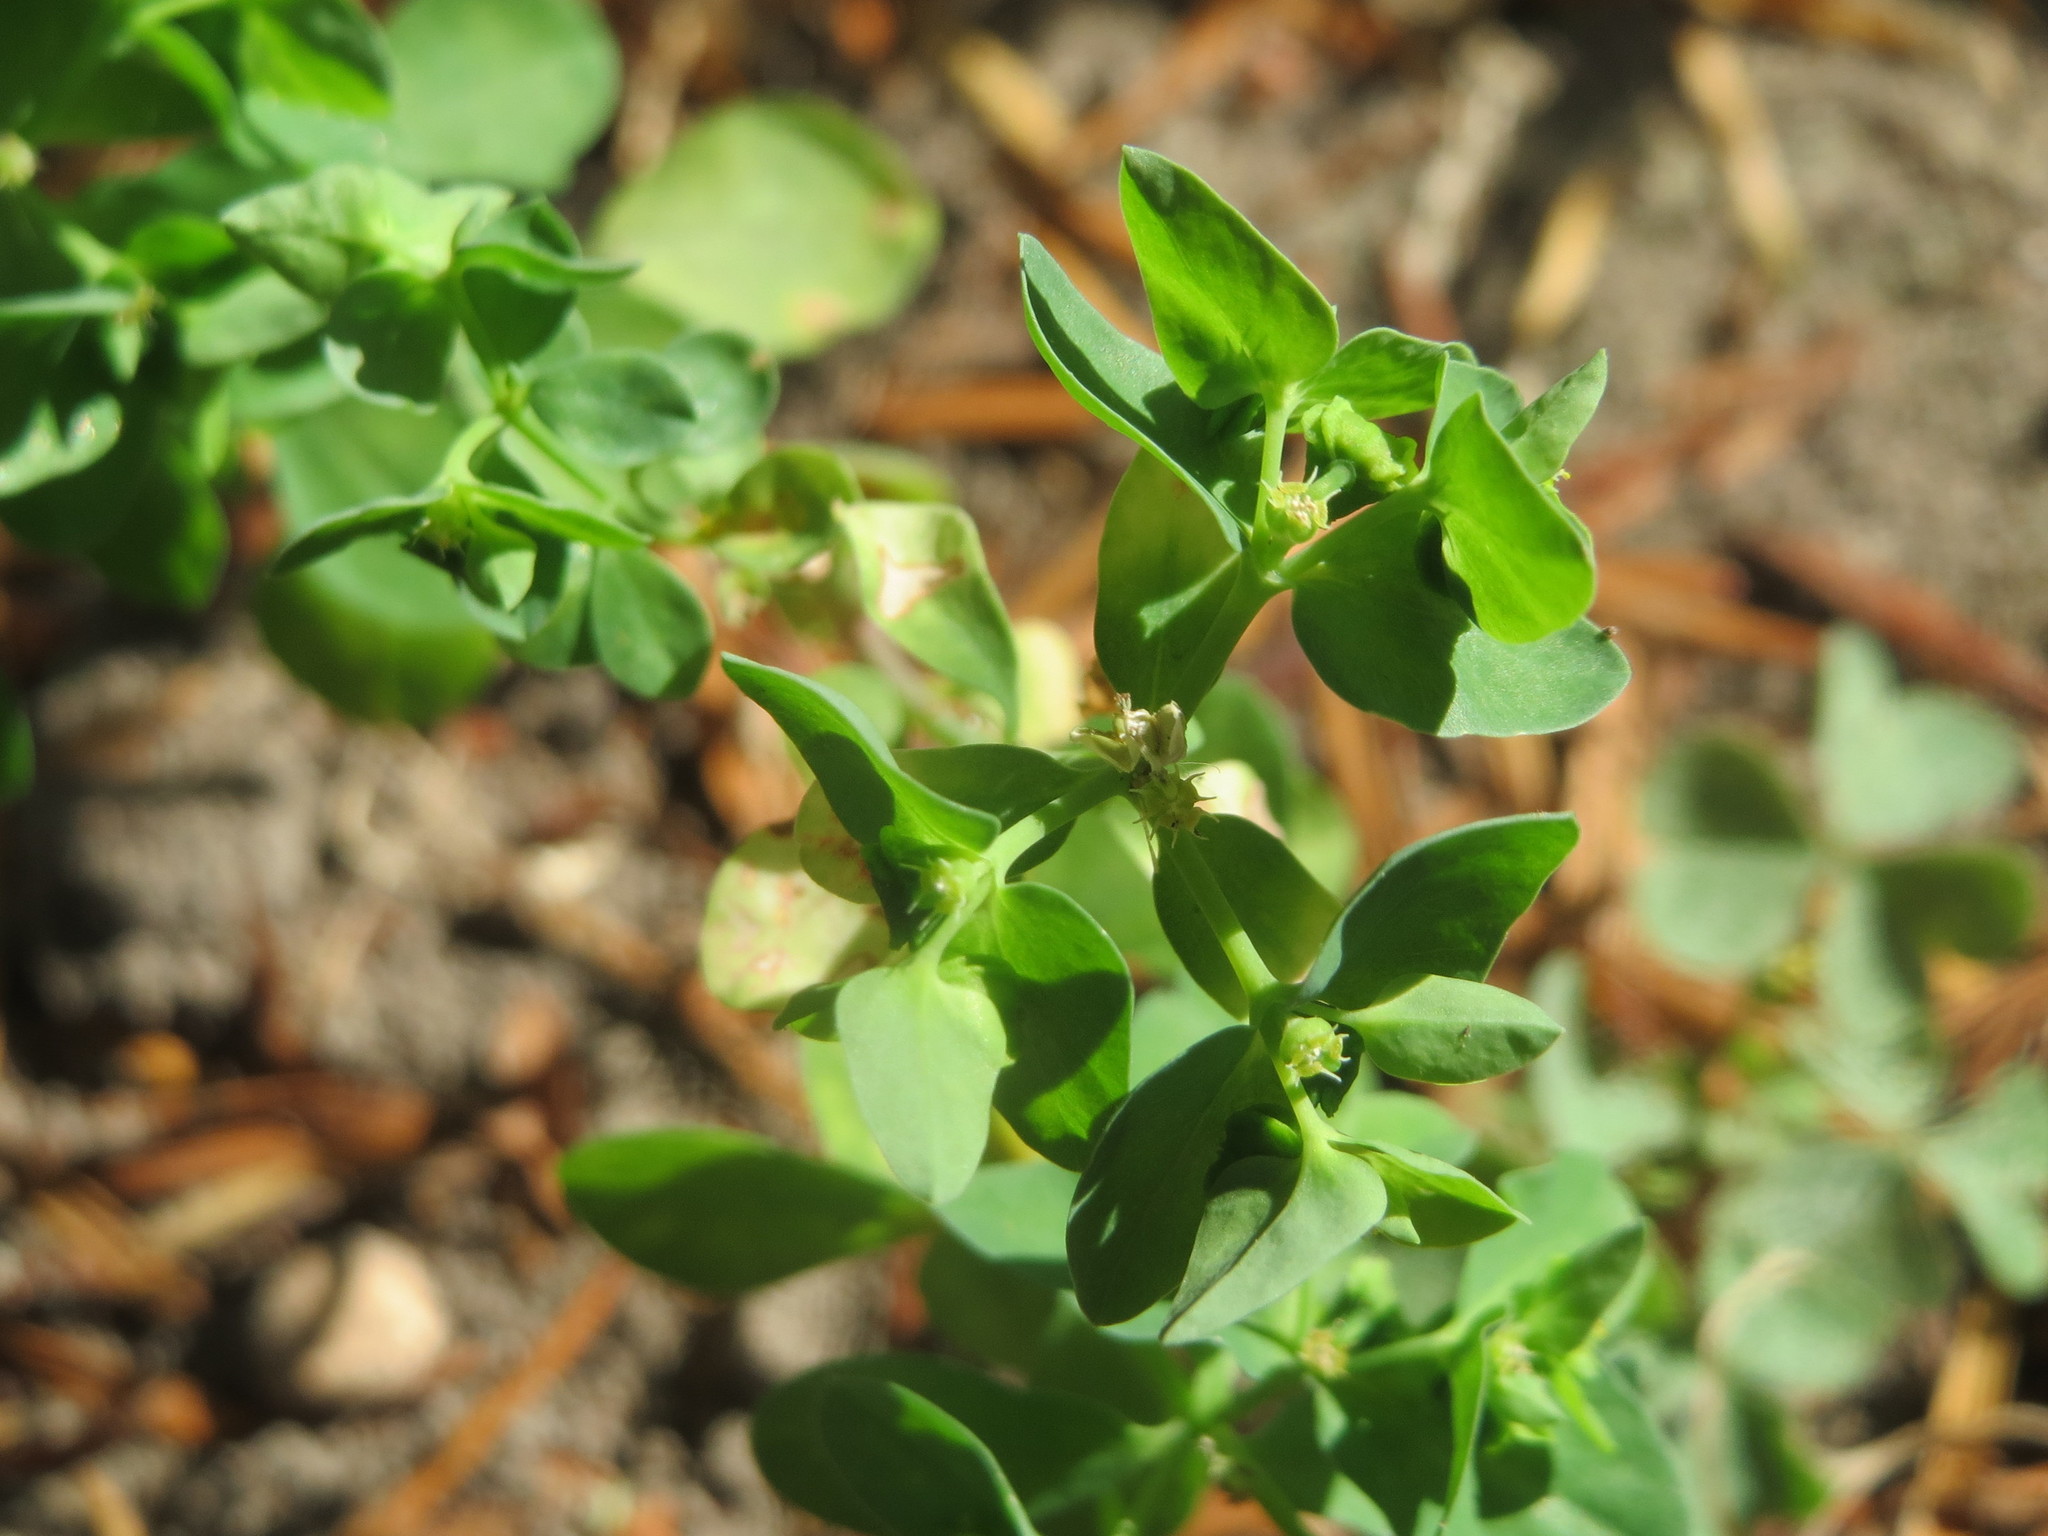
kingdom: Plantae
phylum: Tracheophyta
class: Magnoliopsida
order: Malpighiales
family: Euphorbiaceae
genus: Euphorbia
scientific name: Euphorbia peplus
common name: Petty spurge
